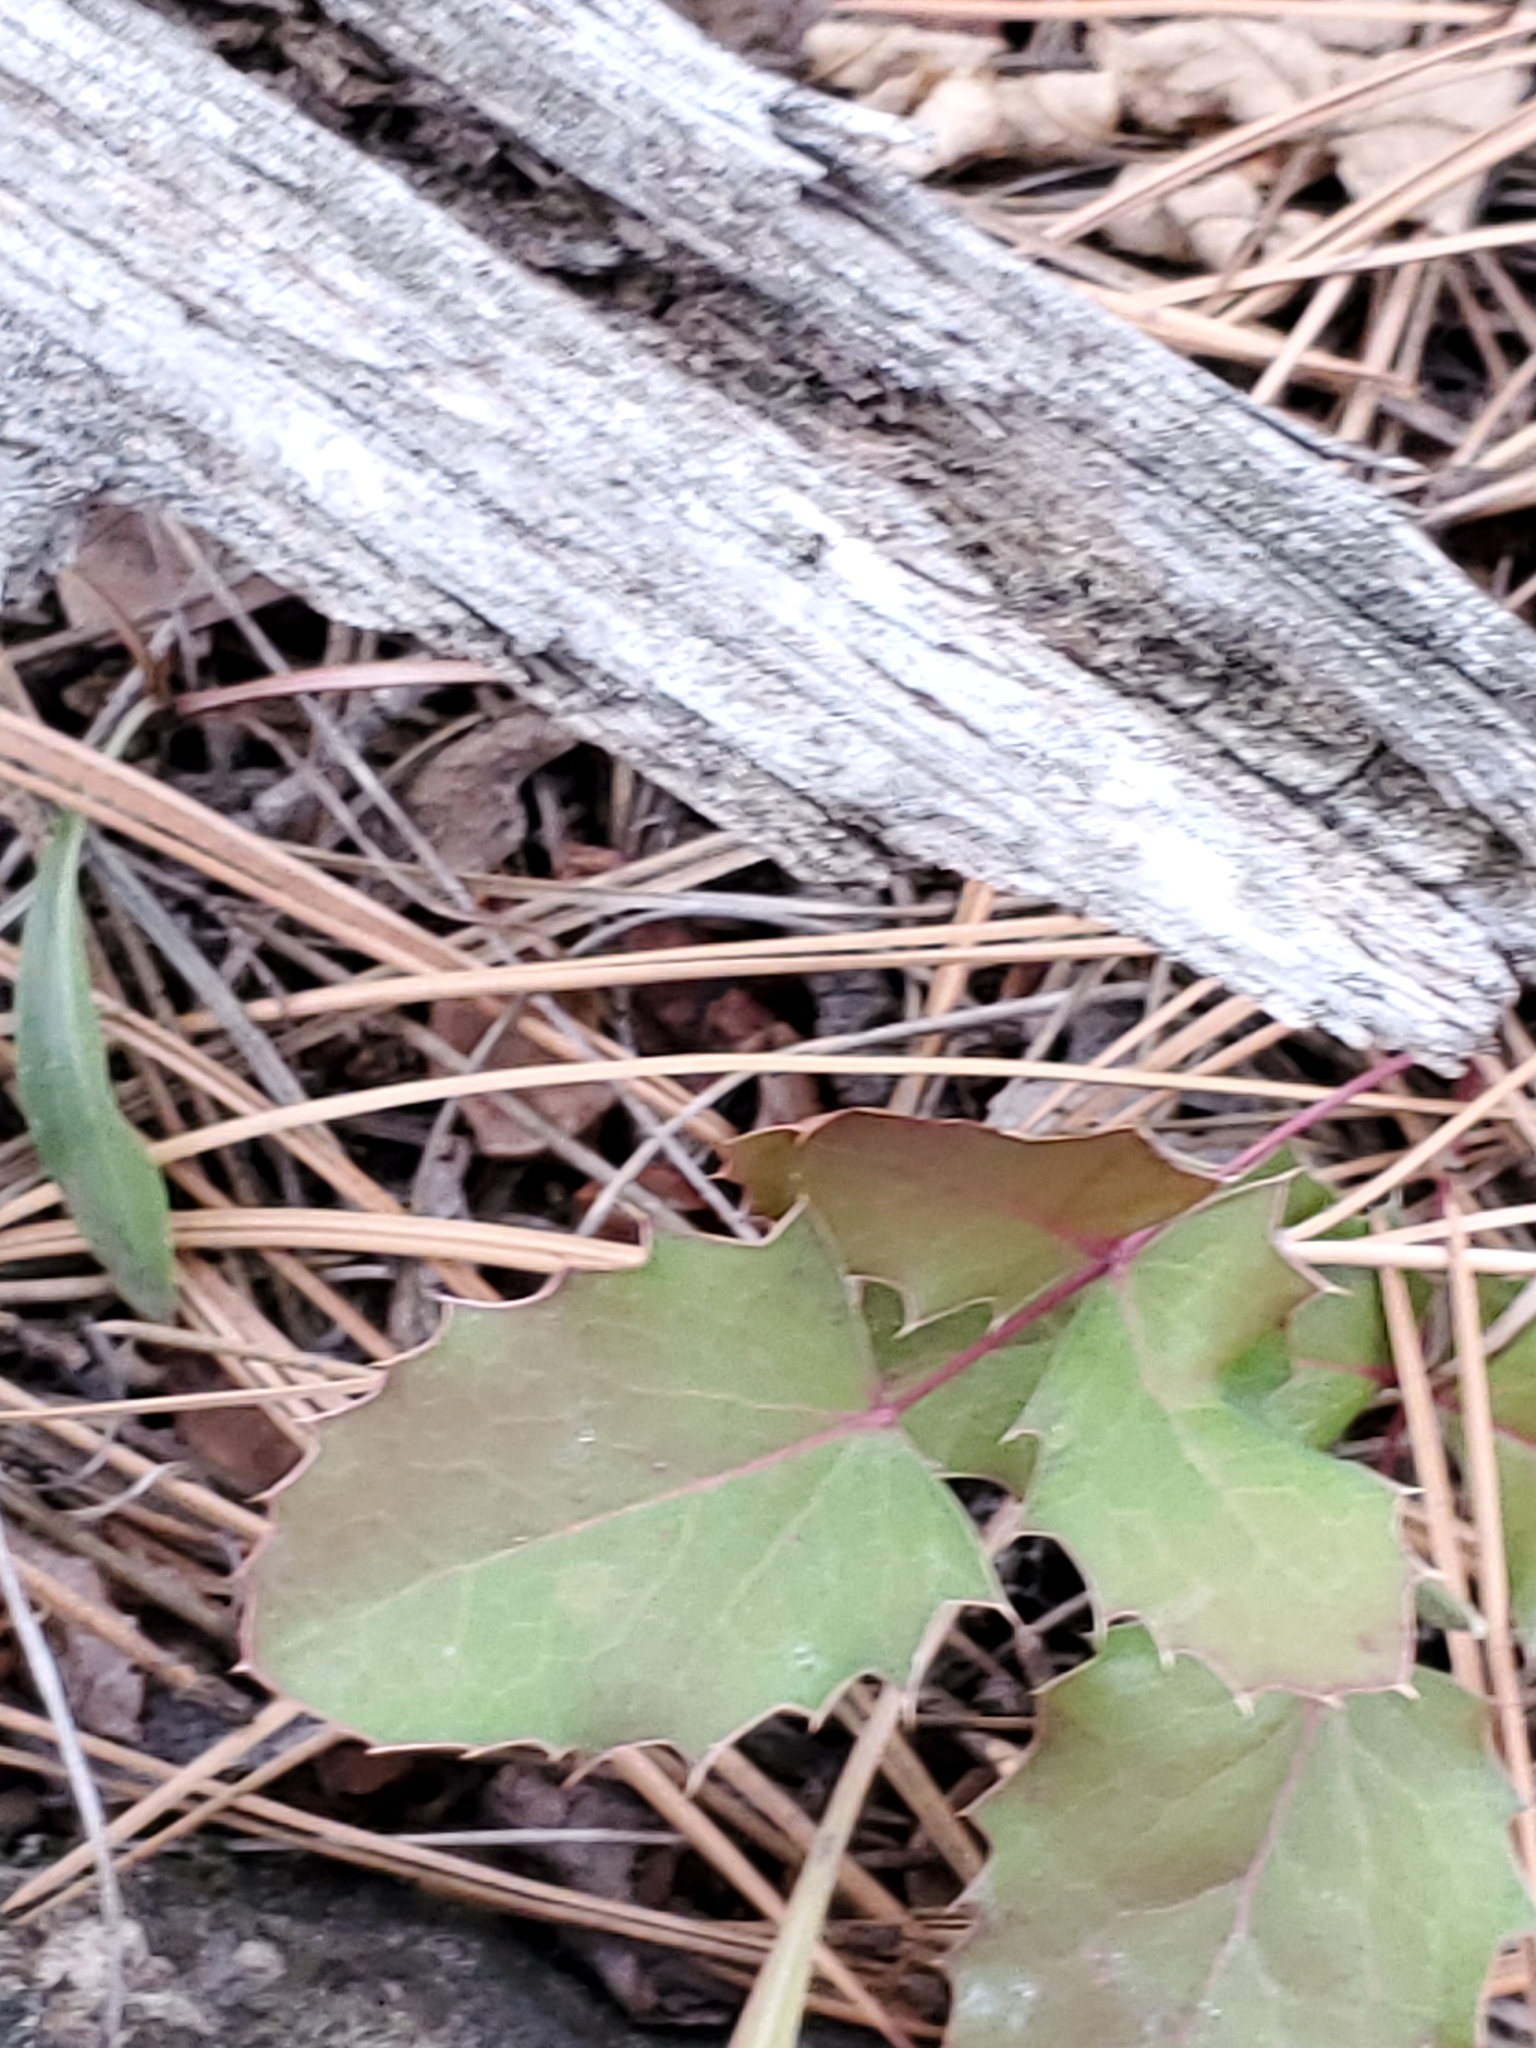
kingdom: Plantae
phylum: Tracheophyta
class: Magnoliopsida
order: Ranunculales
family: Berberidaceae
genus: Mahonia
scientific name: Mahonia repens
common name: Creeping oregon-grape
